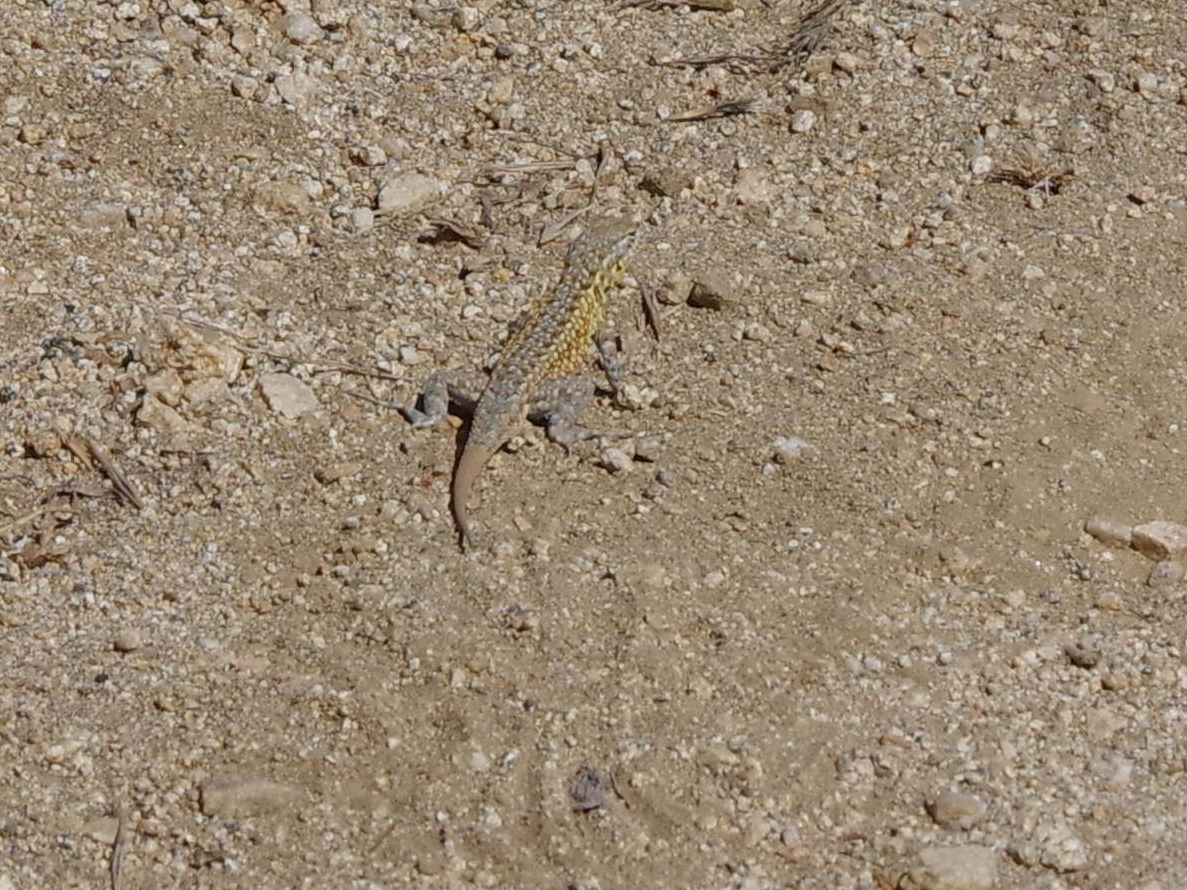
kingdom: Animalia
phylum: Chordata
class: Squamata
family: Phrynosomatidae
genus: Uta
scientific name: Uta stansburiana
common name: Side-blotched lizard
